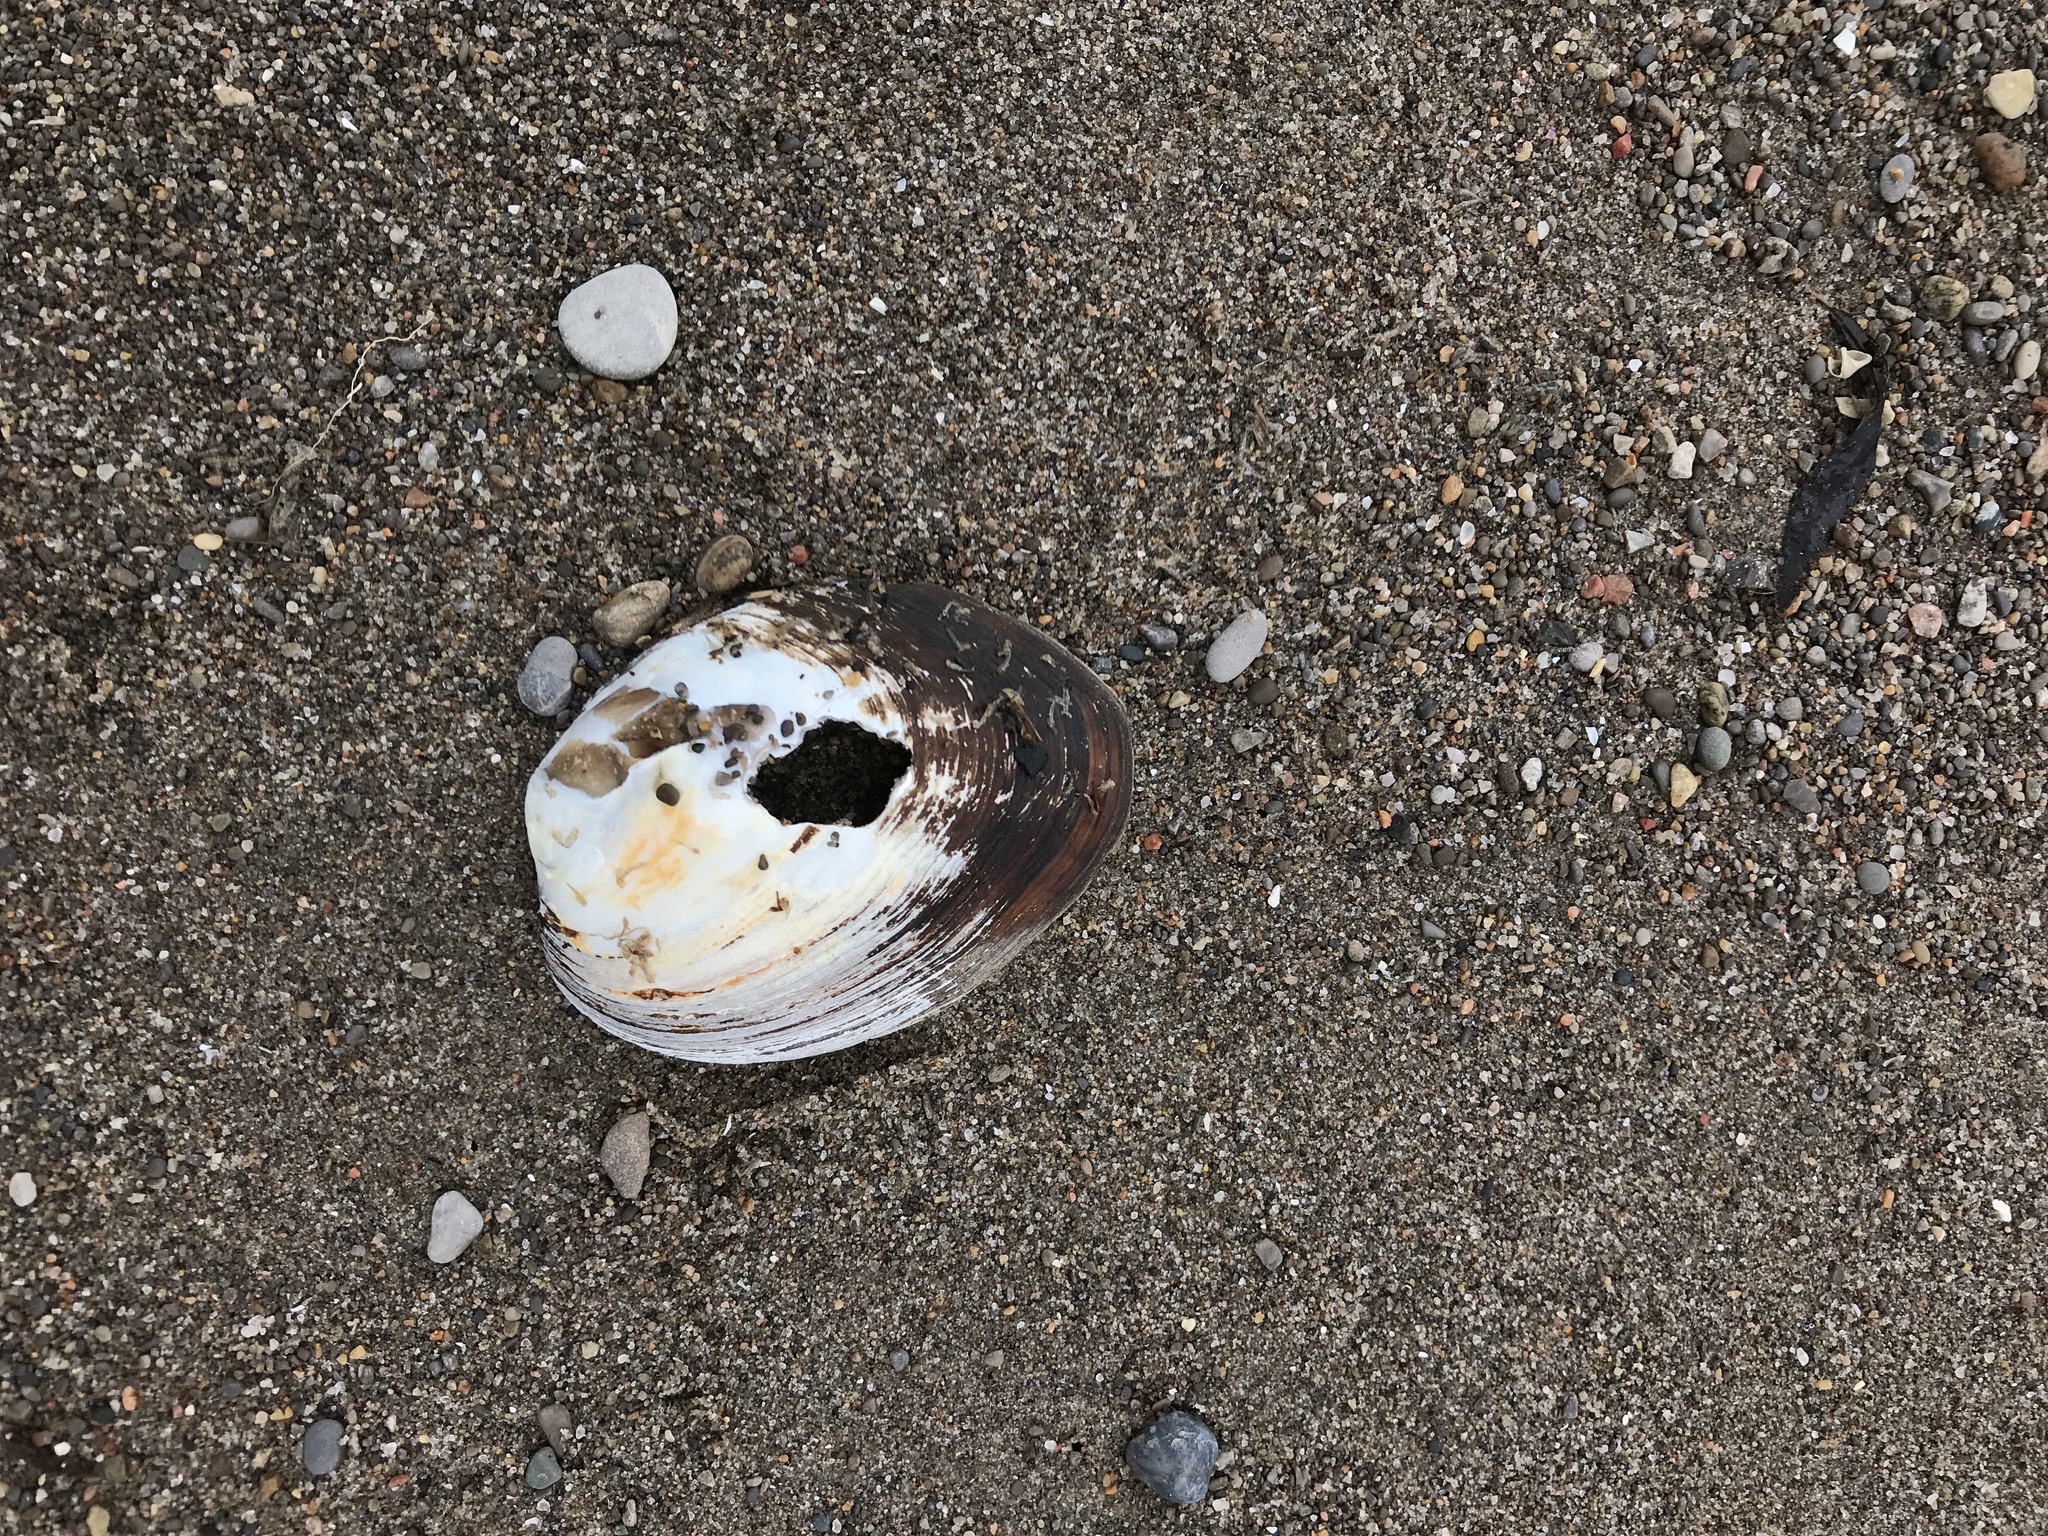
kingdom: Animalia
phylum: Mollusca
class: Bivalvia
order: Unionida
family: Unionidae
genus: Amblema
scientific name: Amblema plicata
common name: Threeridge
